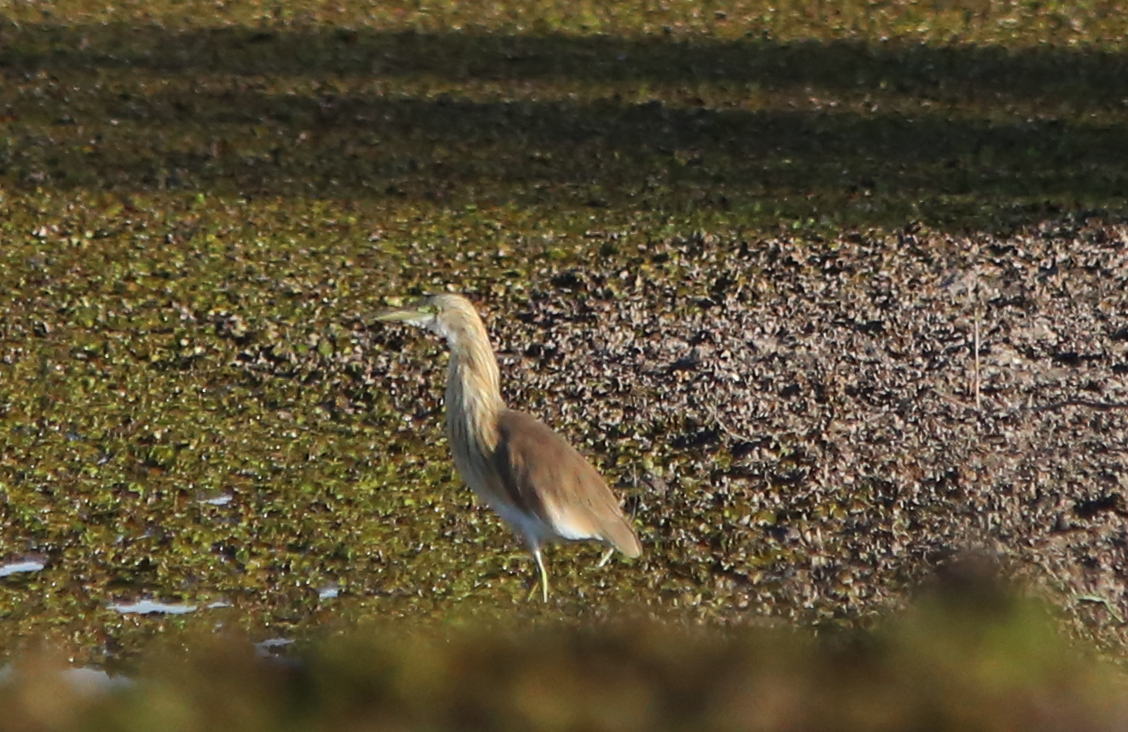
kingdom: Animalia
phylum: Chordata
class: Aves
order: Pelecaniformes
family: Ardeidae
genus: Ardeola
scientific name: Ardeola ralloides
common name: Squacco heron
